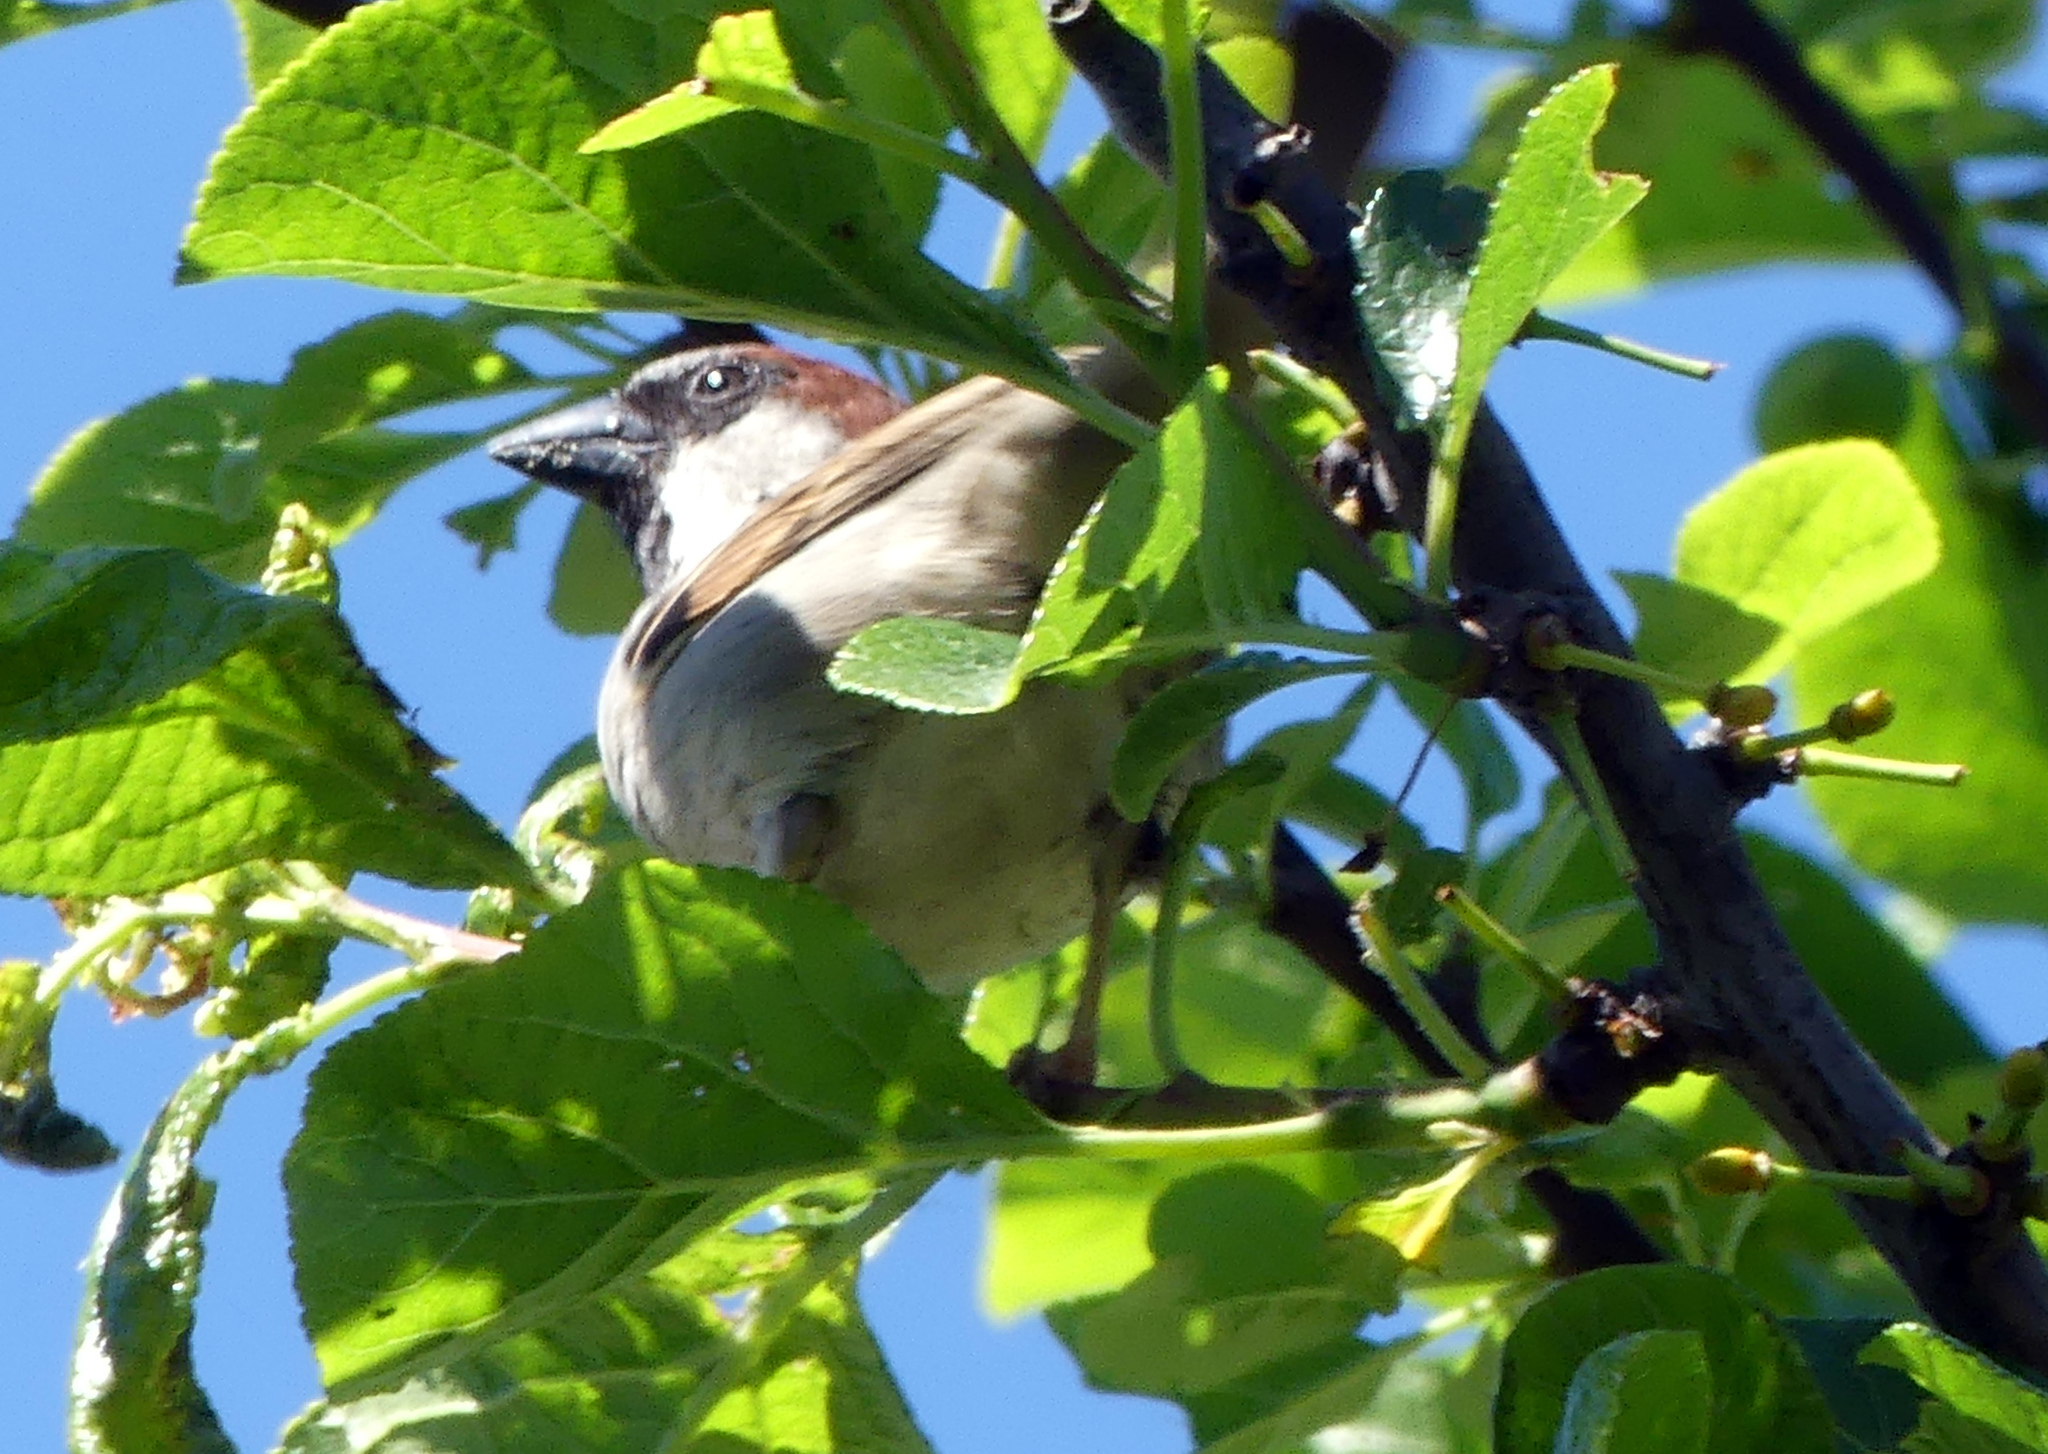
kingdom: Animalia
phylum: Chordata
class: Aves
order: Passeriformes
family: Passeridae
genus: Passer
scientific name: Passer domesticus
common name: House sparrow
